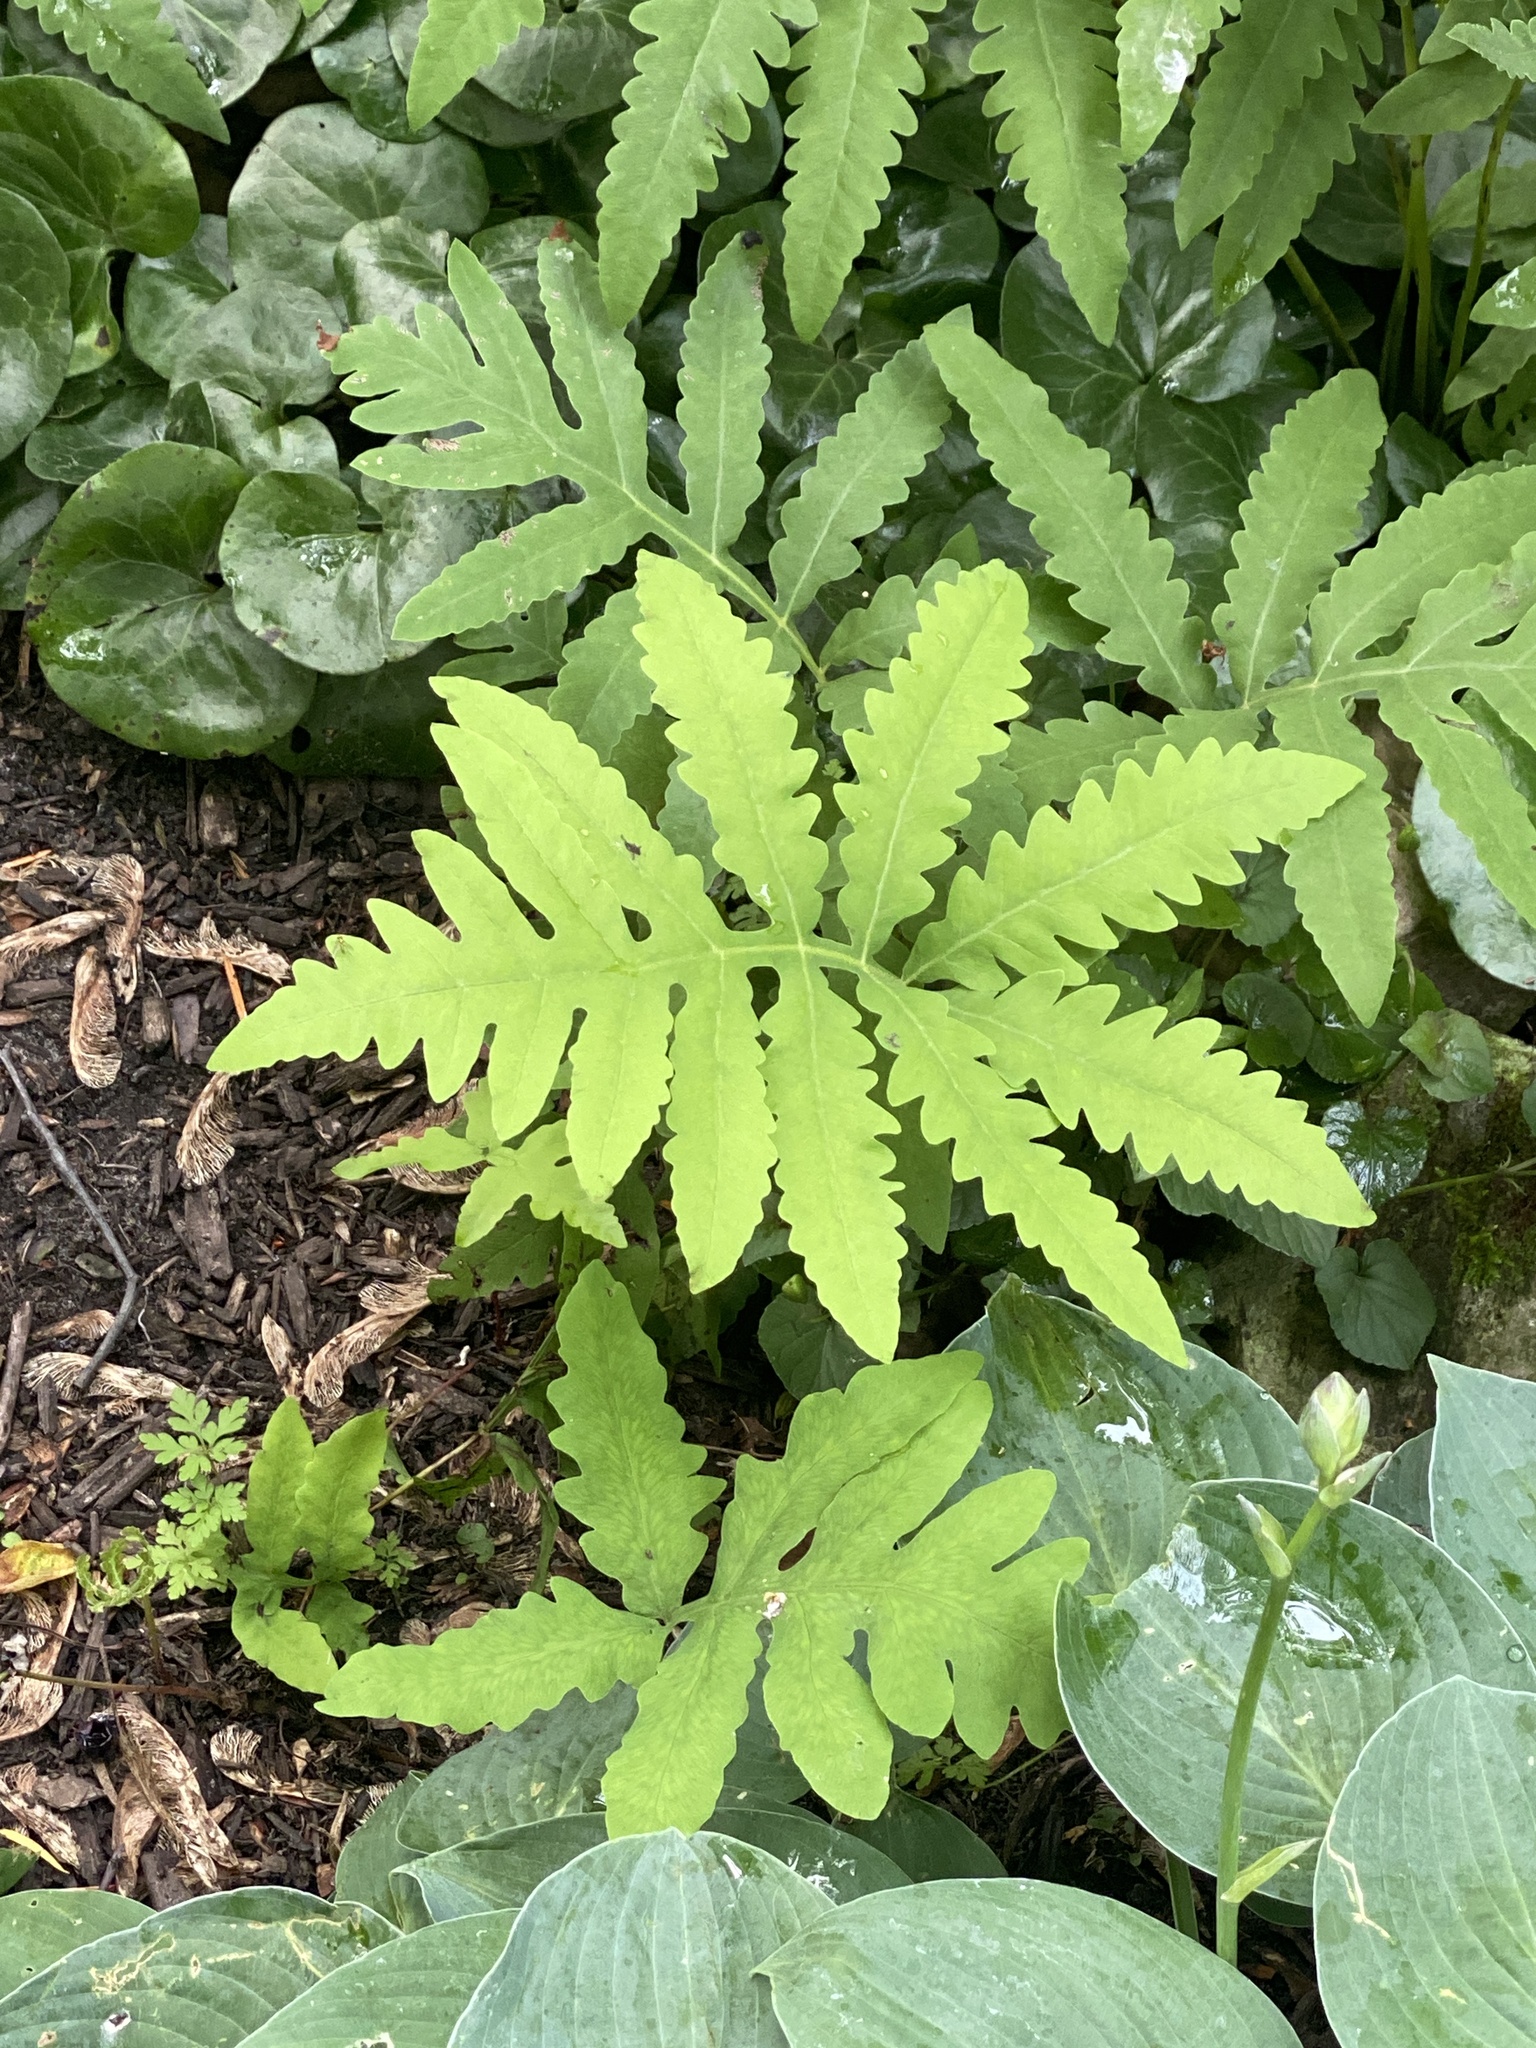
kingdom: Plantae
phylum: Tracheophyta
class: Polypodiopsida
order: Polypodiales
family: Onocleaceae
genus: Onoclea
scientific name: Onoclea sensibilis
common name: Sensitive fern
